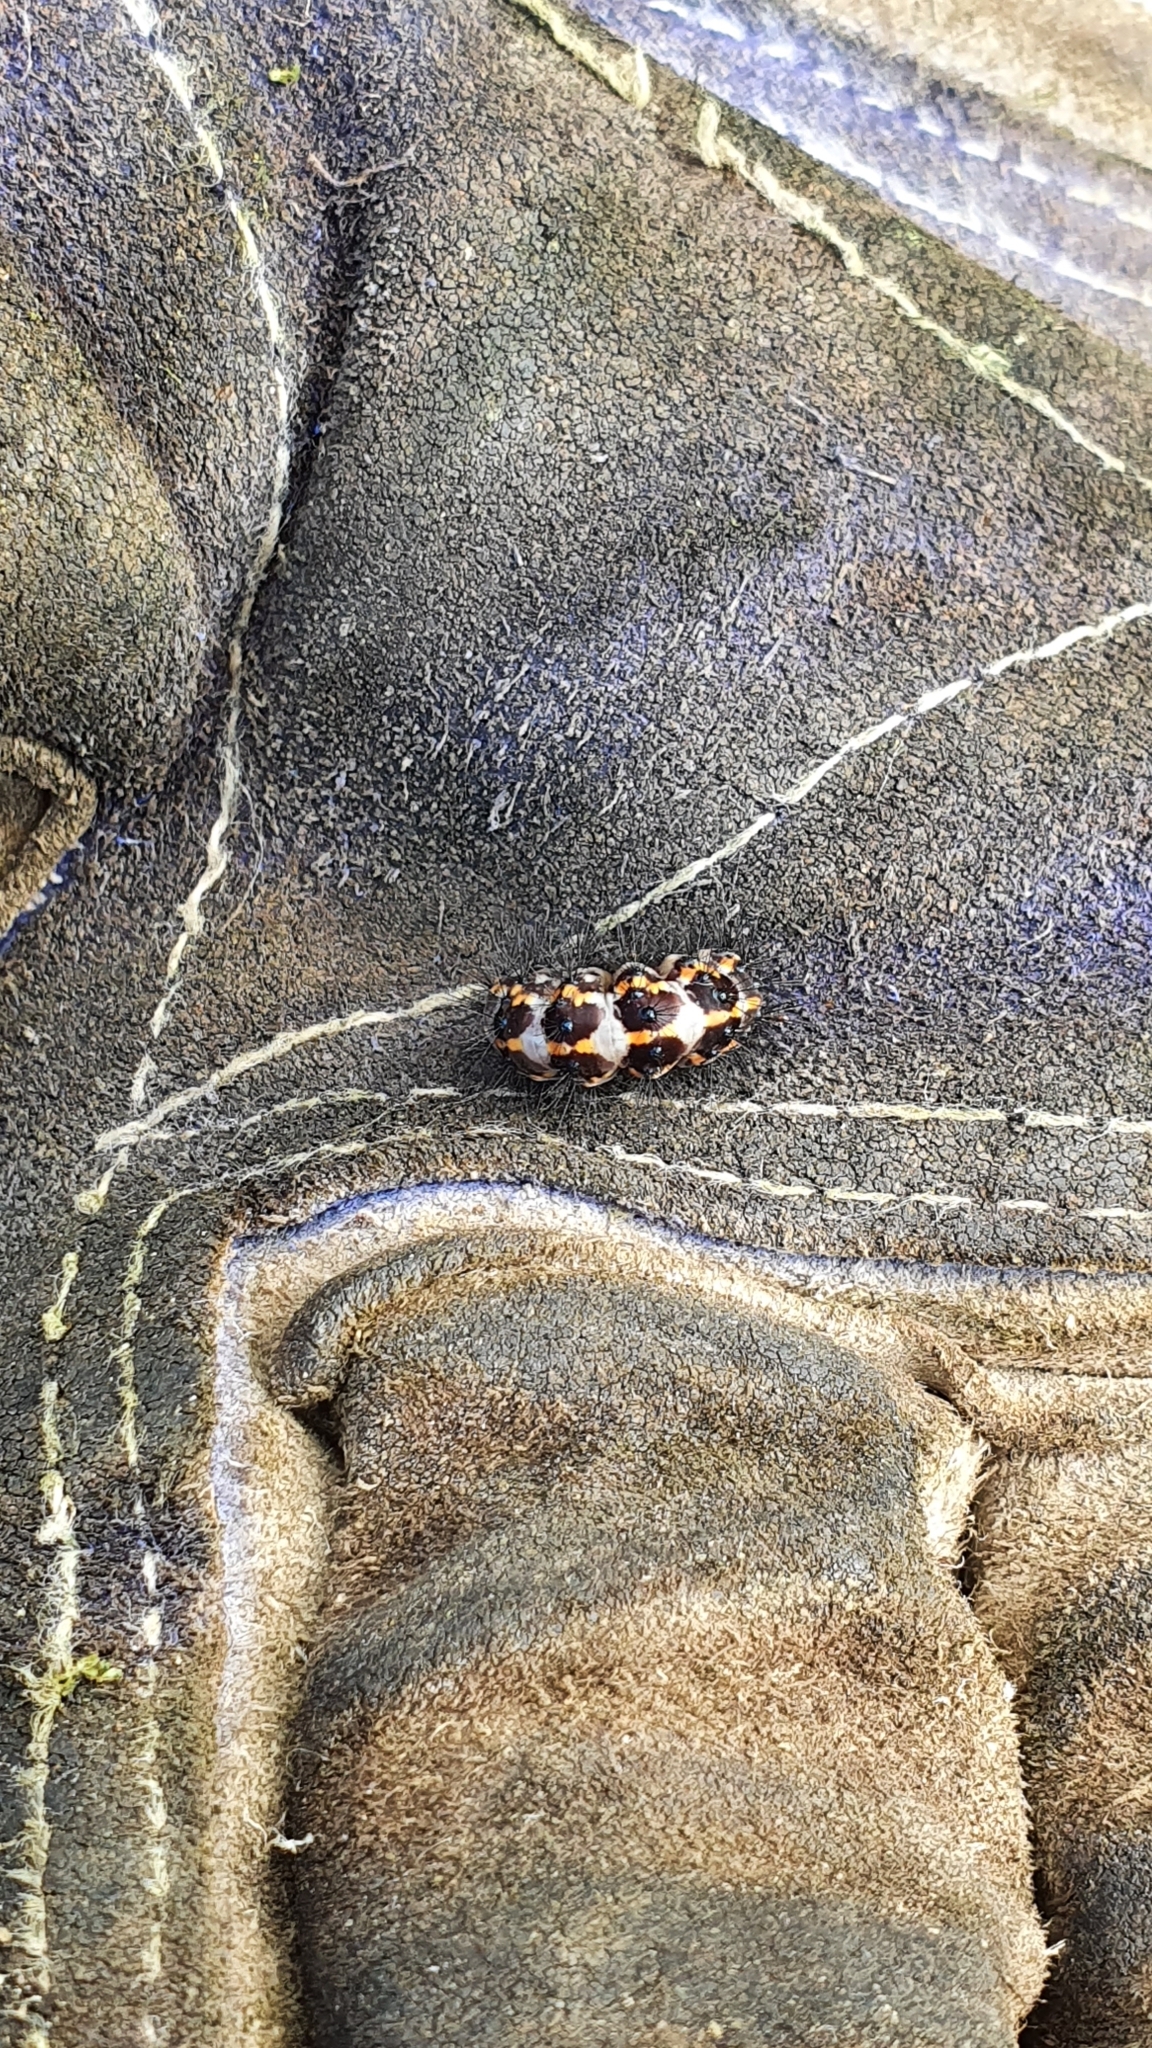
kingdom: Animalia
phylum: Arthropoda
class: Insecta
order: Lepidoptera
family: Erebidae
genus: Nyctemera
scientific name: Nyctemera annulatum
